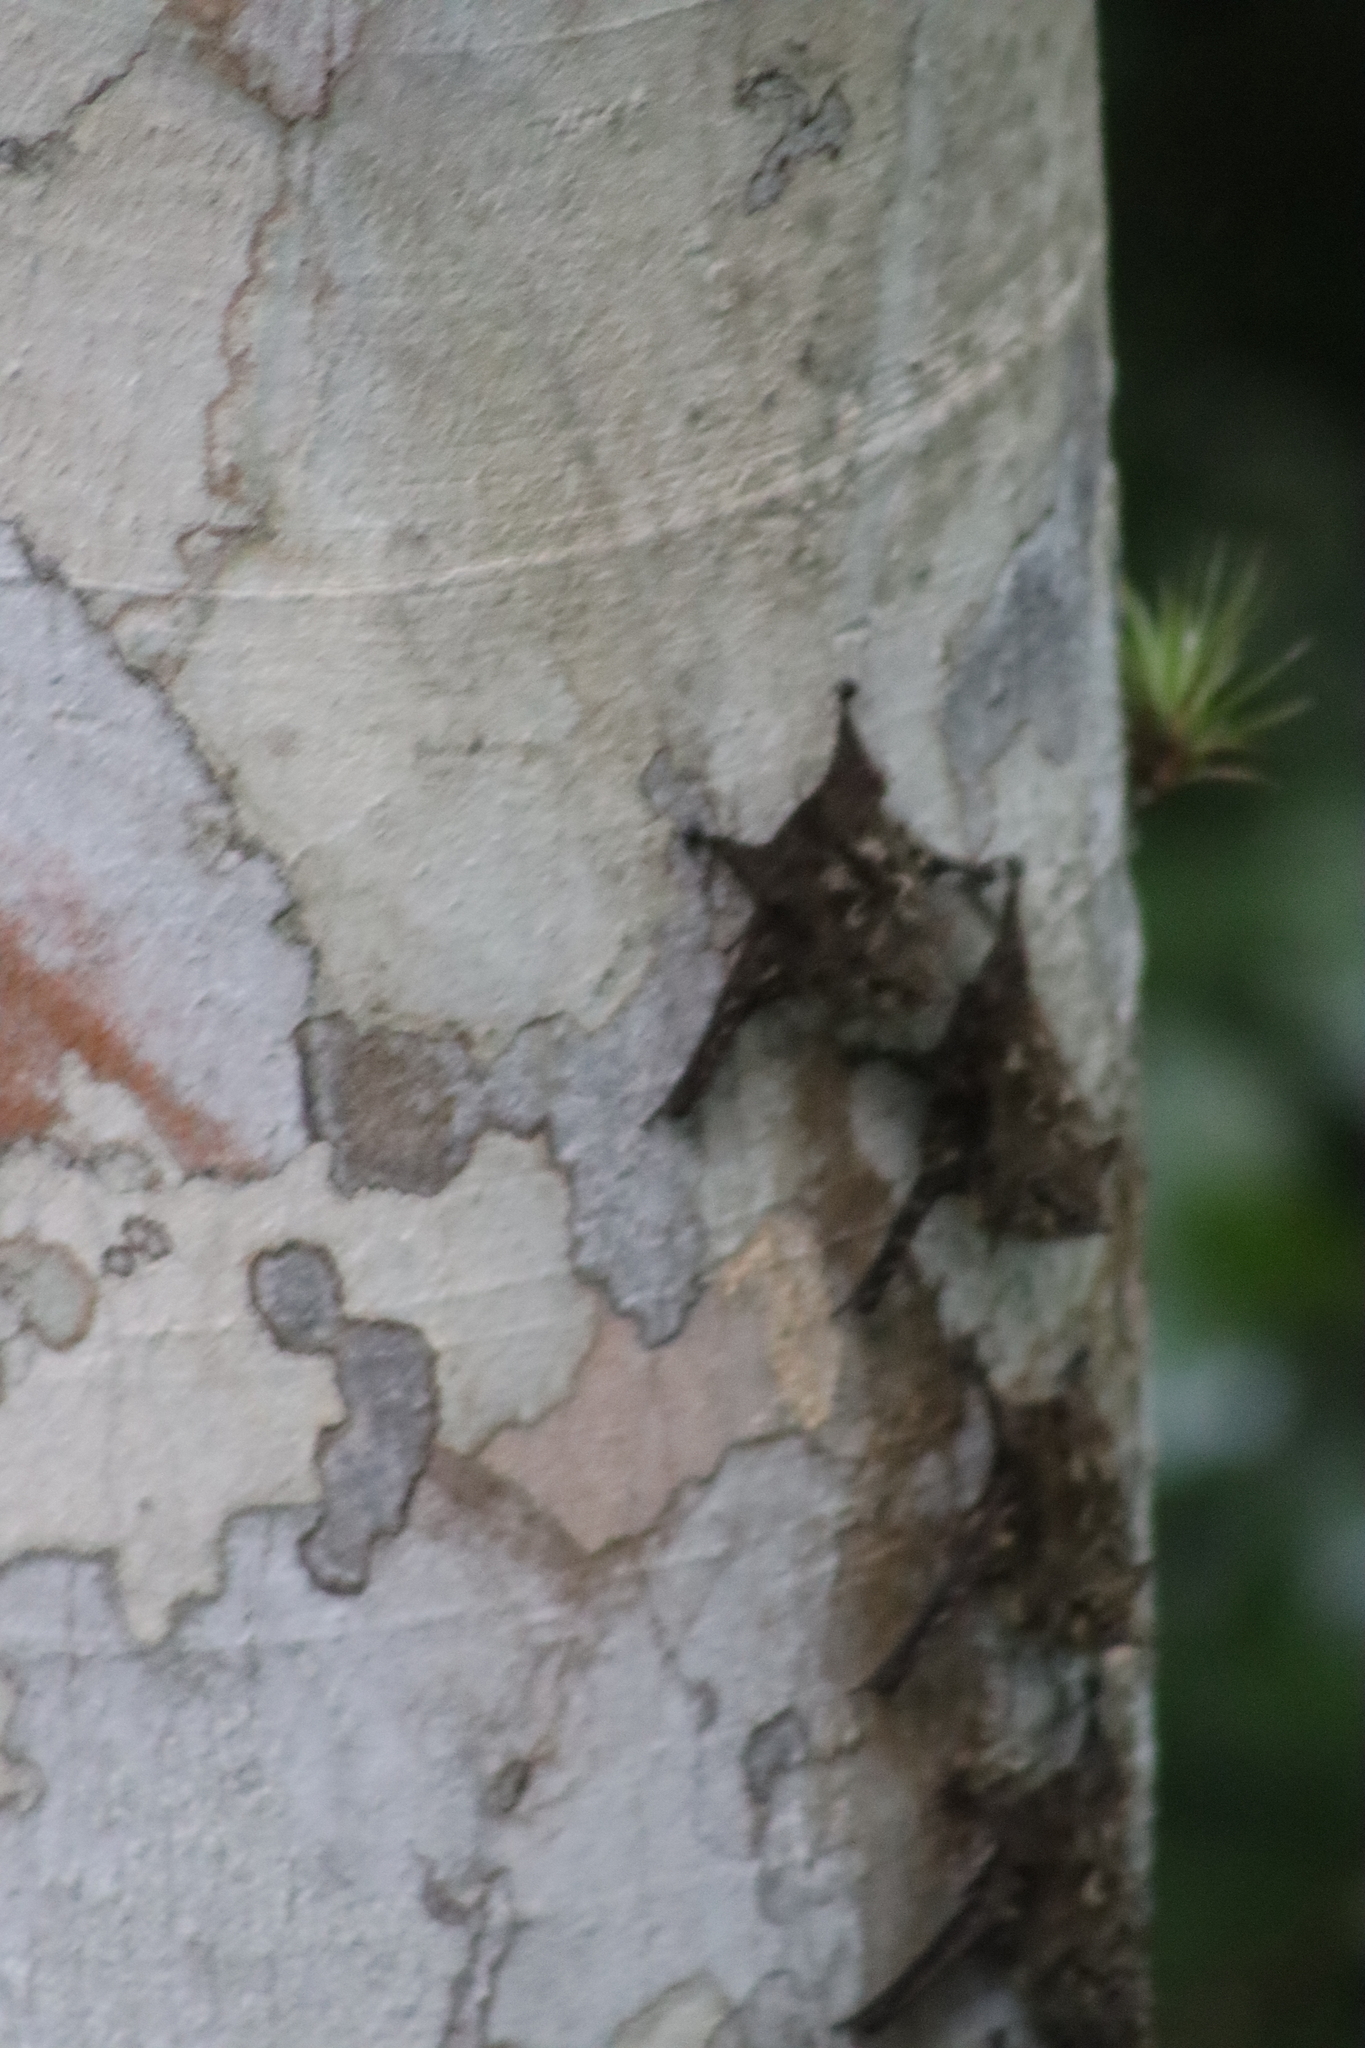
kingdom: Animalia
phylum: Chordata
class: Mammalia
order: Chiroptera
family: Emballonuridae
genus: Rhynchonycteris
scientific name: Rhynchonycteris naso
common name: Proboscis bat
